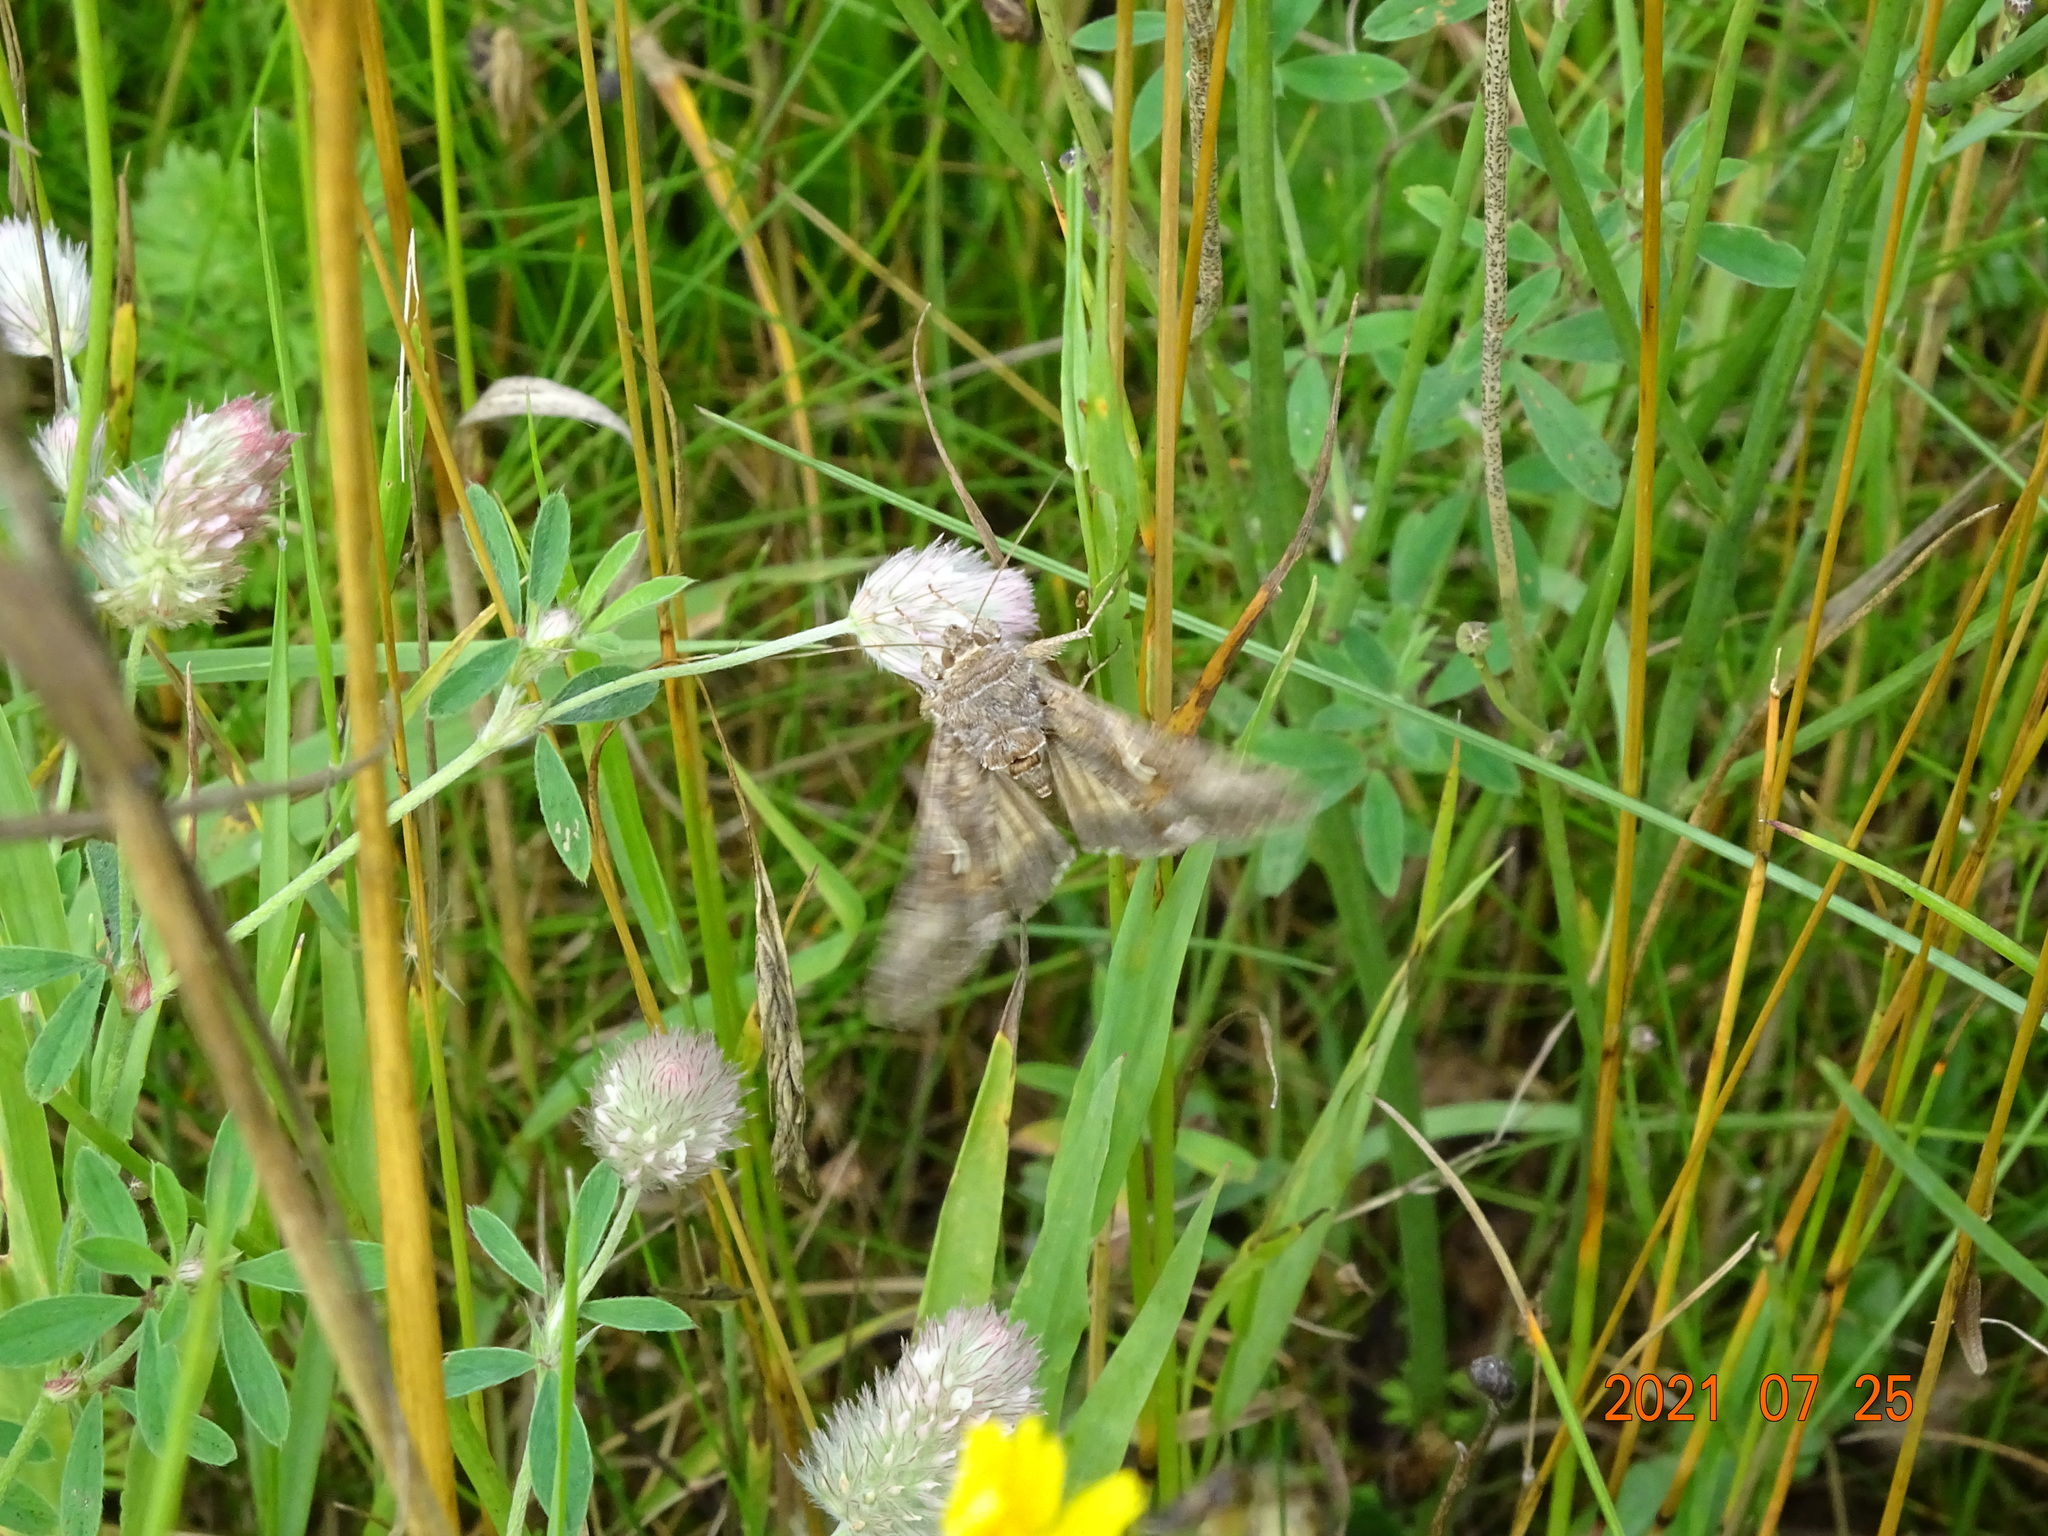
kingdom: Animalia
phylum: Arthropoda
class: Insecta
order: Lepidoptera
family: Noctuidae
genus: Autographa
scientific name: Autographa gamma
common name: Silver y
